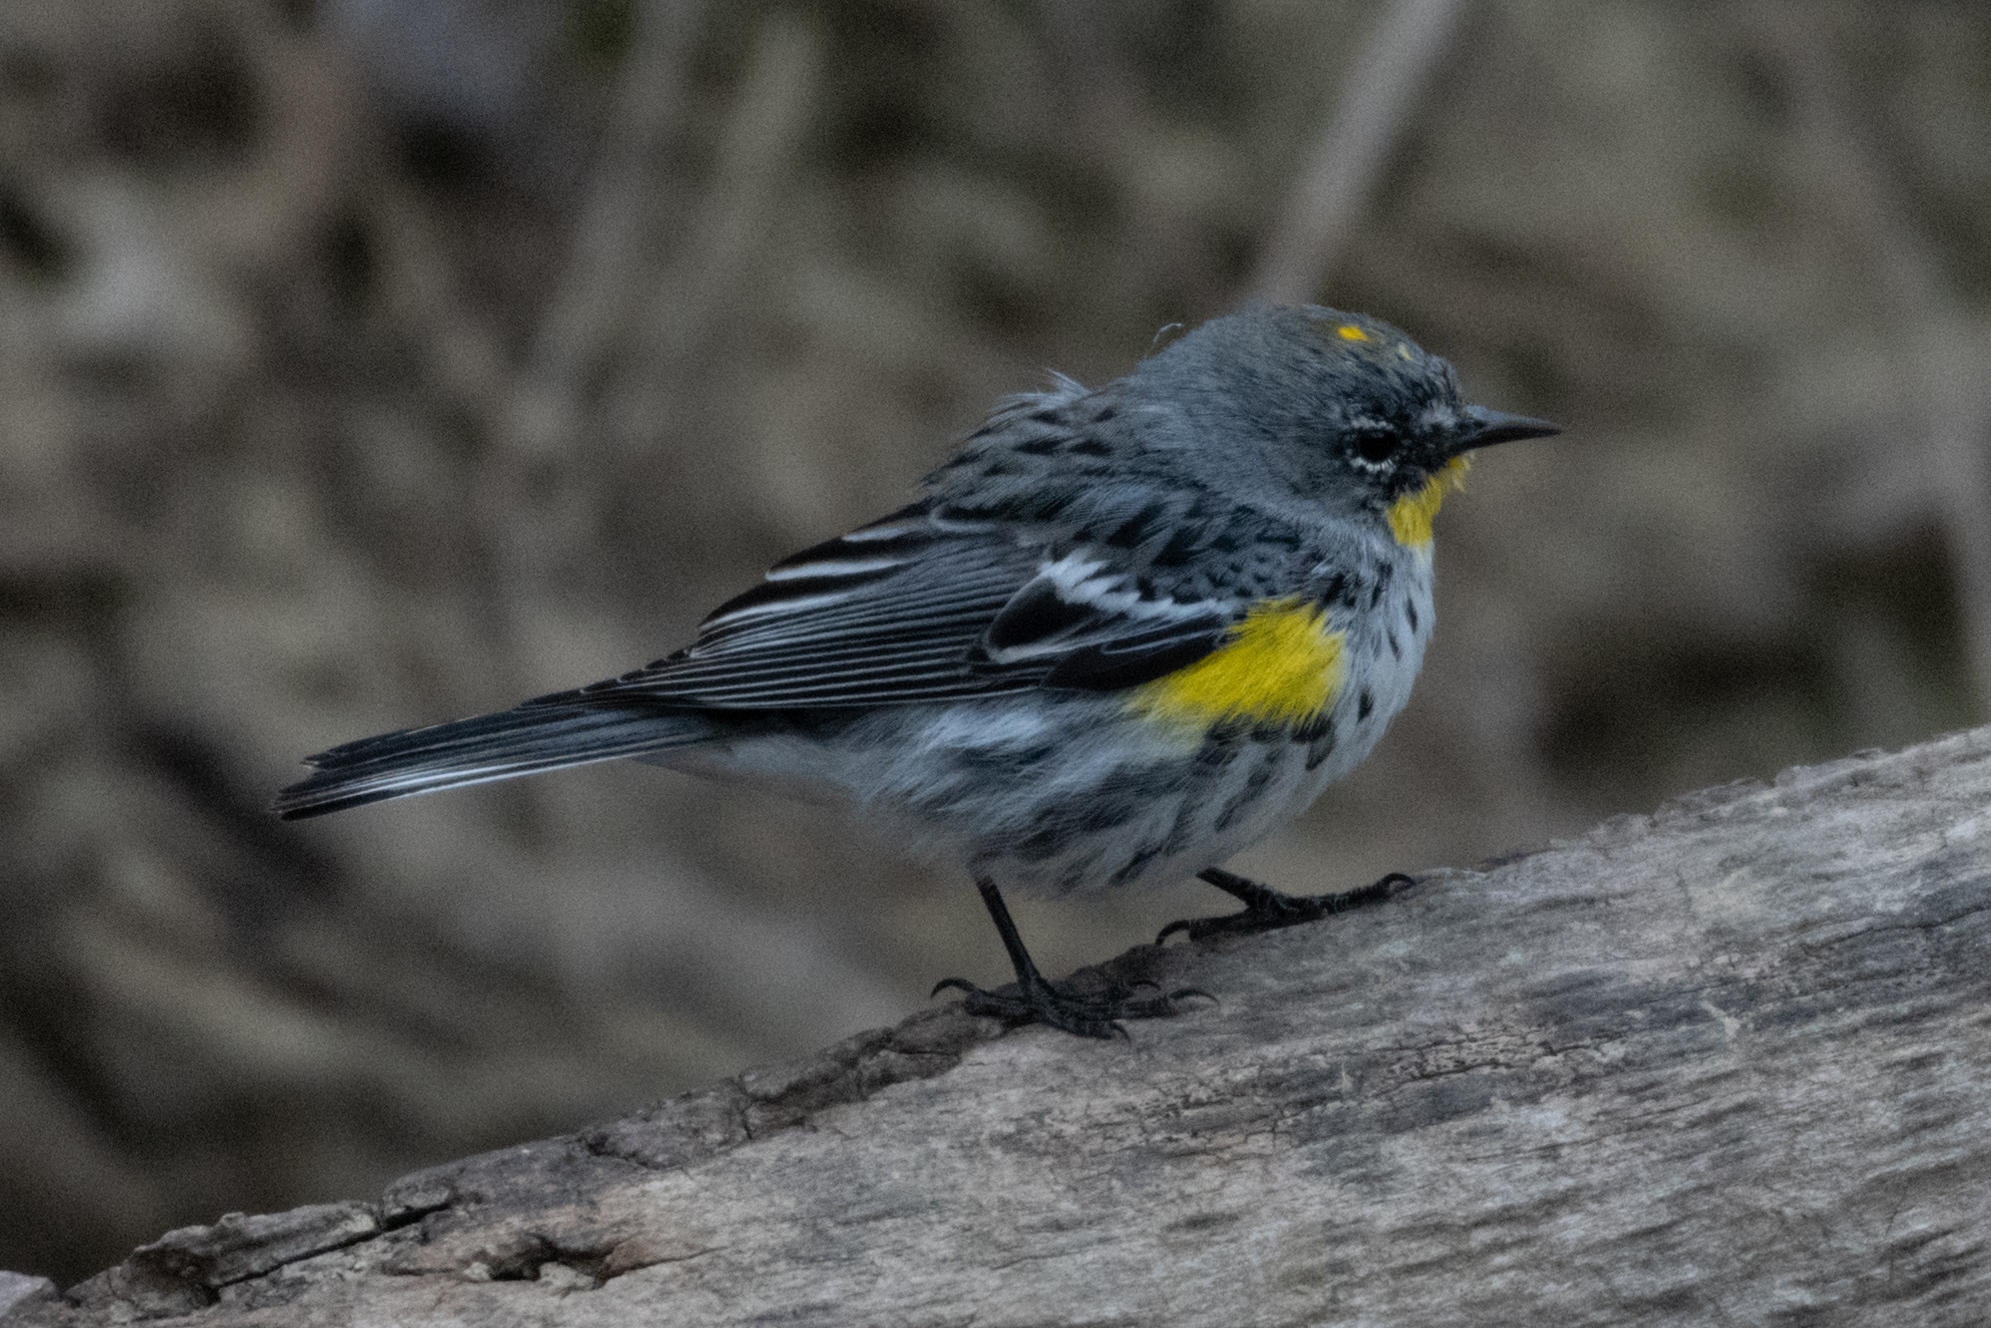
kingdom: Animalia
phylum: Chordata
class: Aves
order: Passeriformes
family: Parulidae
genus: Setophaga
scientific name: Setophaga auduboni
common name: Audubon's warbler
